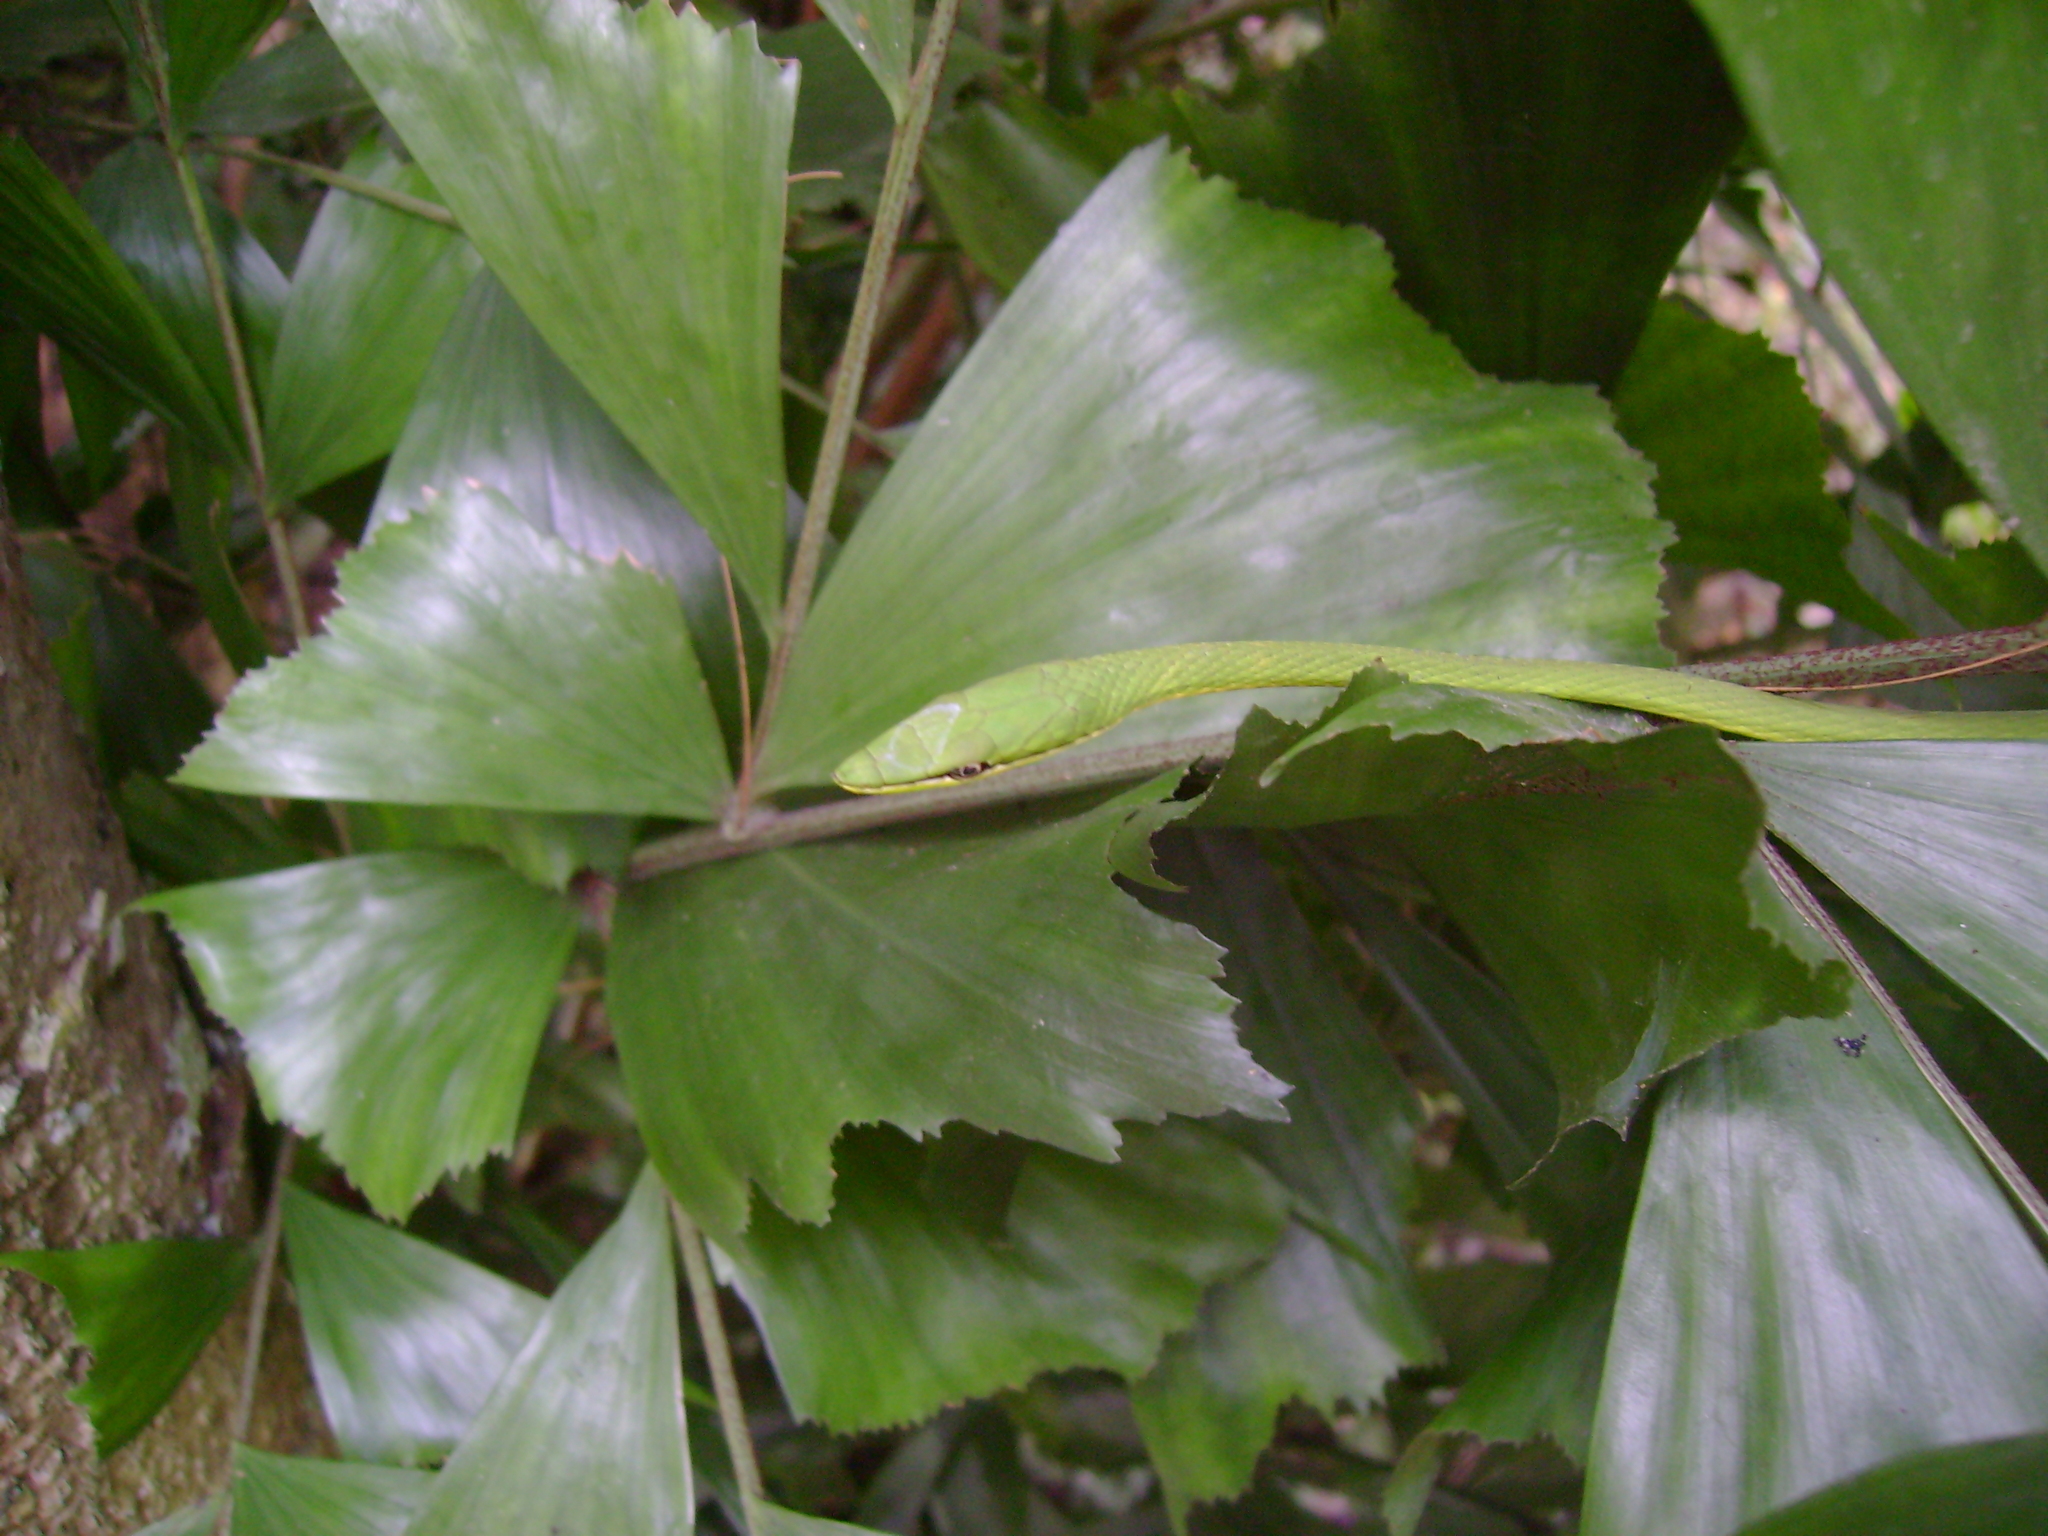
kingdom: Animalia
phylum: Chordata
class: Squamata
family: Colubridae
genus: Uromacer
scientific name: Uromacer oxyrhynchus
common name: Pointed snake
